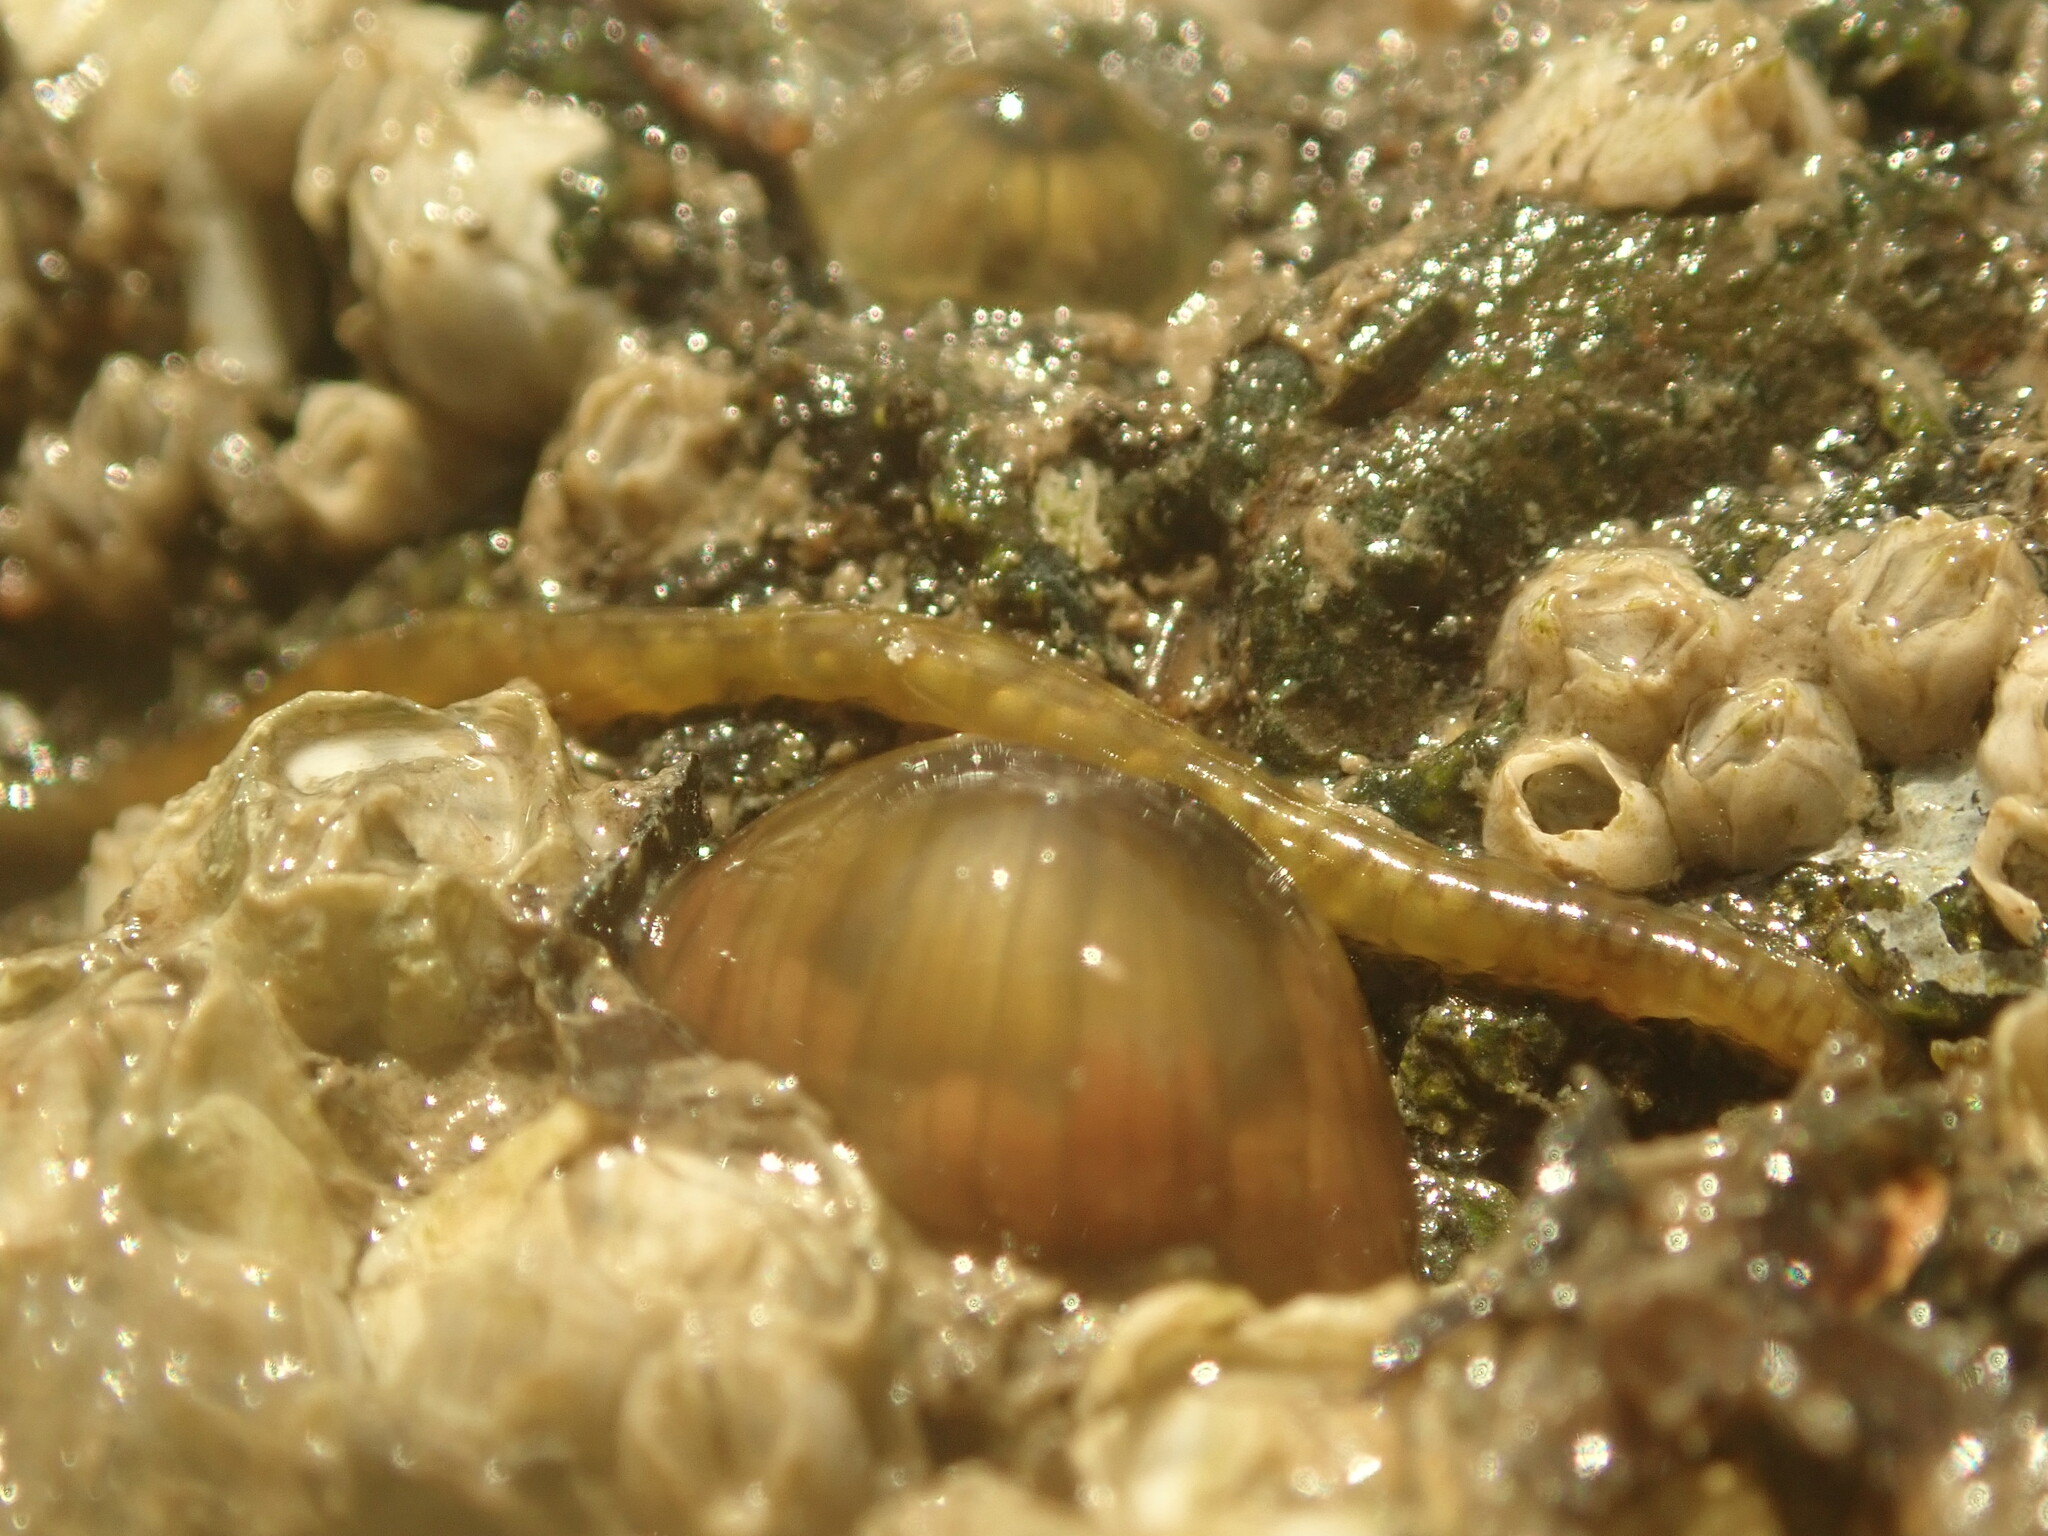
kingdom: Animalia
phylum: Annelida
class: Polychaeta
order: Phyllodocida
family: Syllidae
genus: Syllis
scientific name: Syllis adamantea
